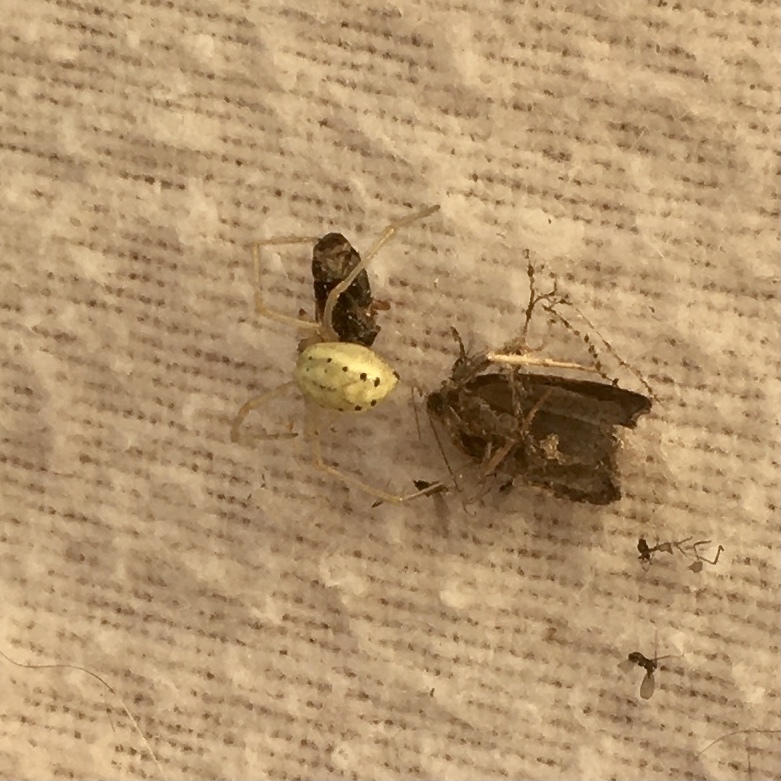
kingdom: Animalia
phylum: Arthropoda
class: Arachnida
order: Araneae
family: Theridiidae
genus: Enoplognatha
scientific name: Enoplognatha ovata
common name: Common candy-striped spider
